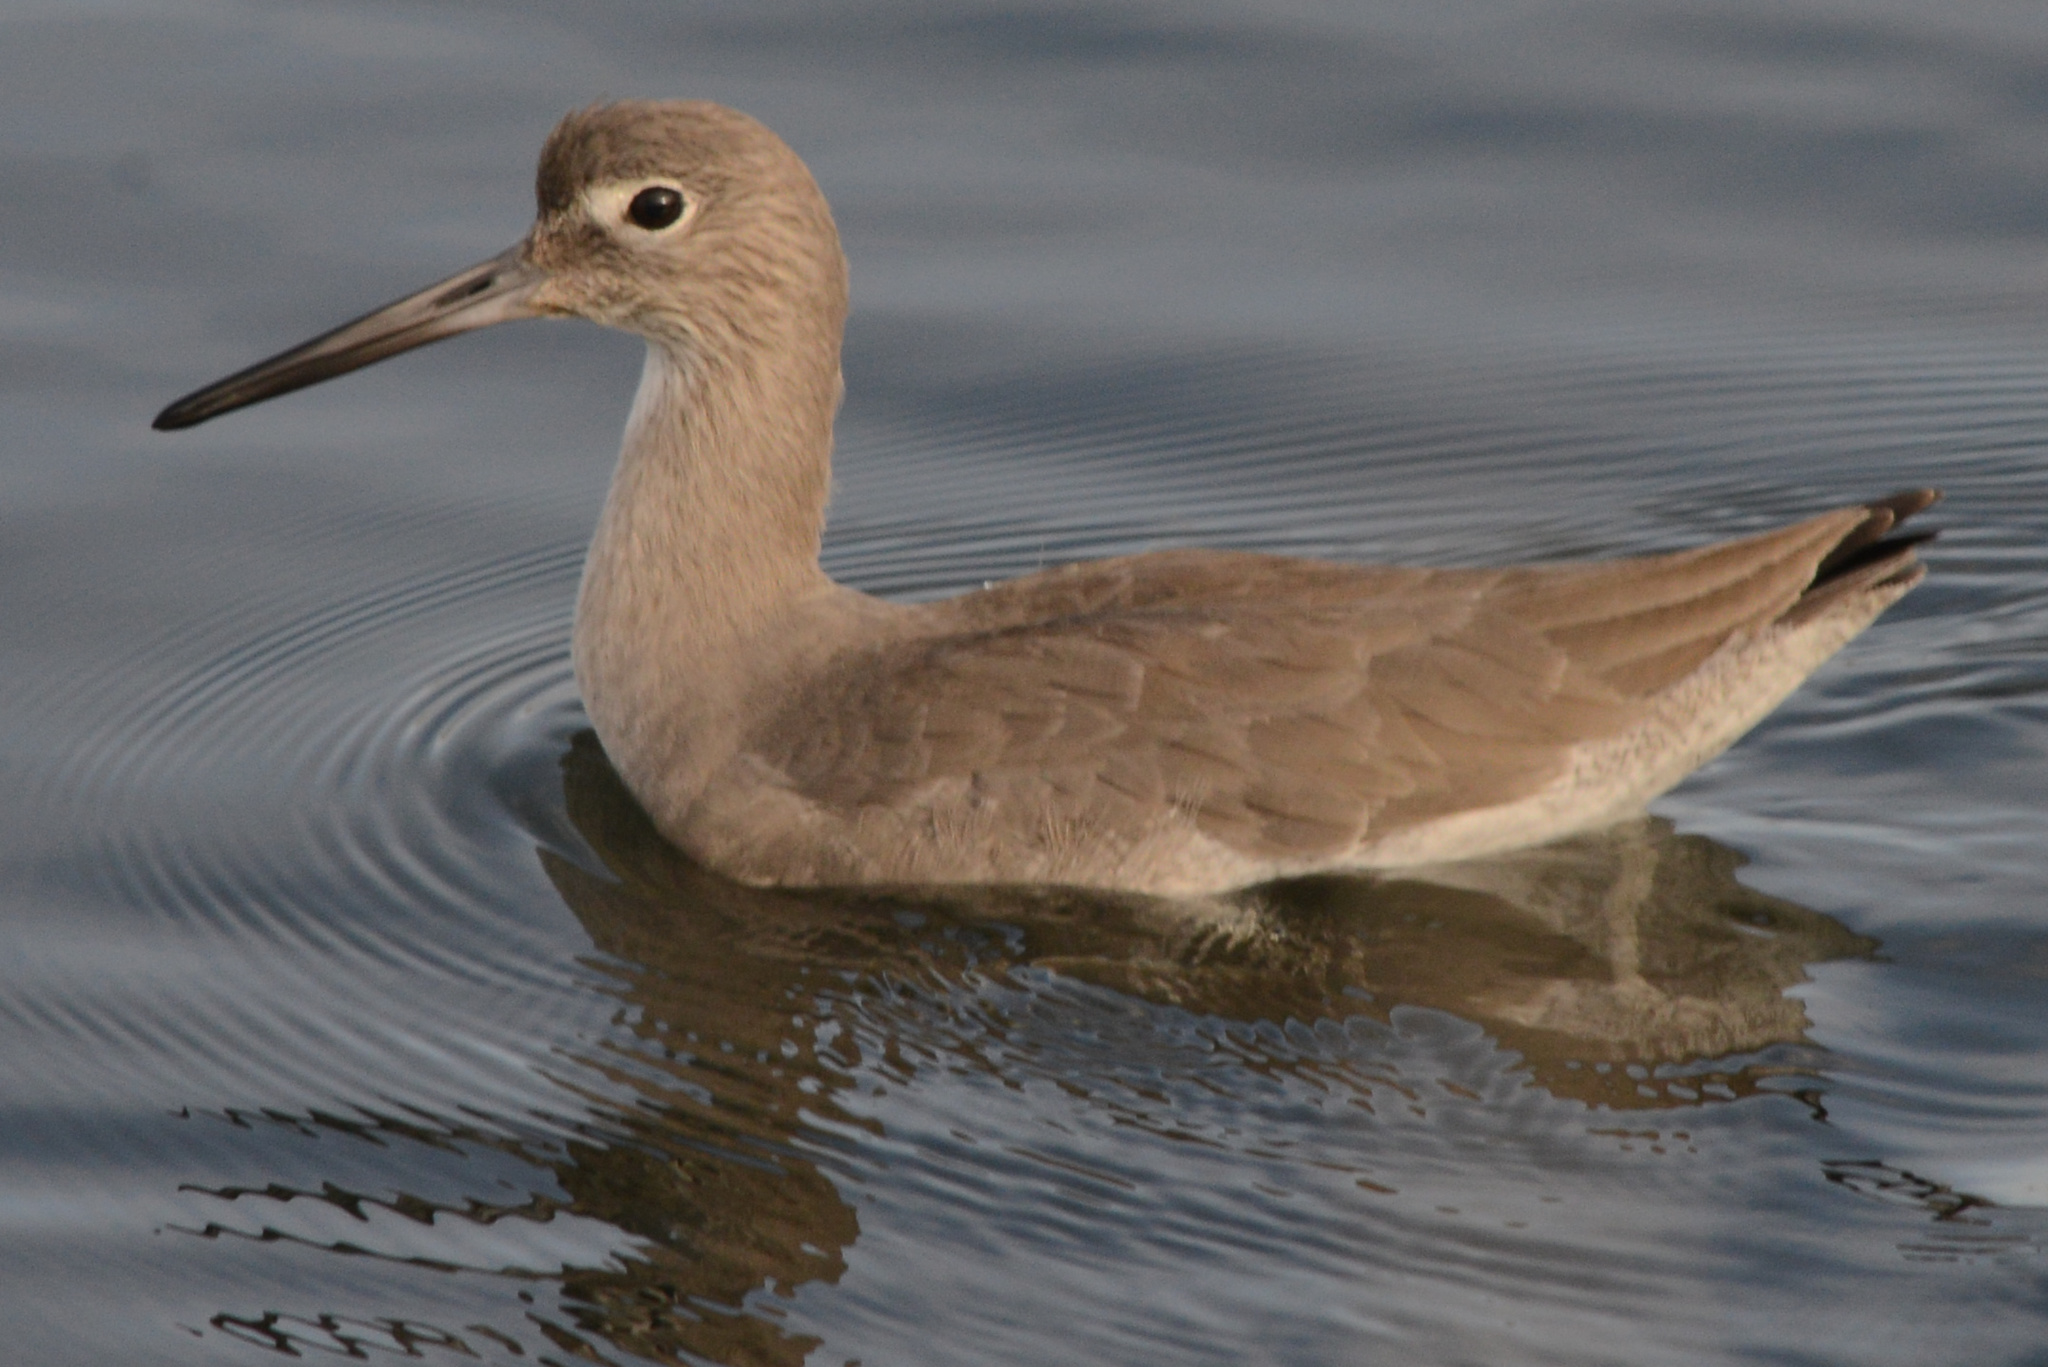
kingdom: Animalia
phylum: Chordata
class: Aves
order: Charadriiformes
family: Scolopacidae
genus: Tringa
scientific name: Tringa semipalmata
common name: Willet
